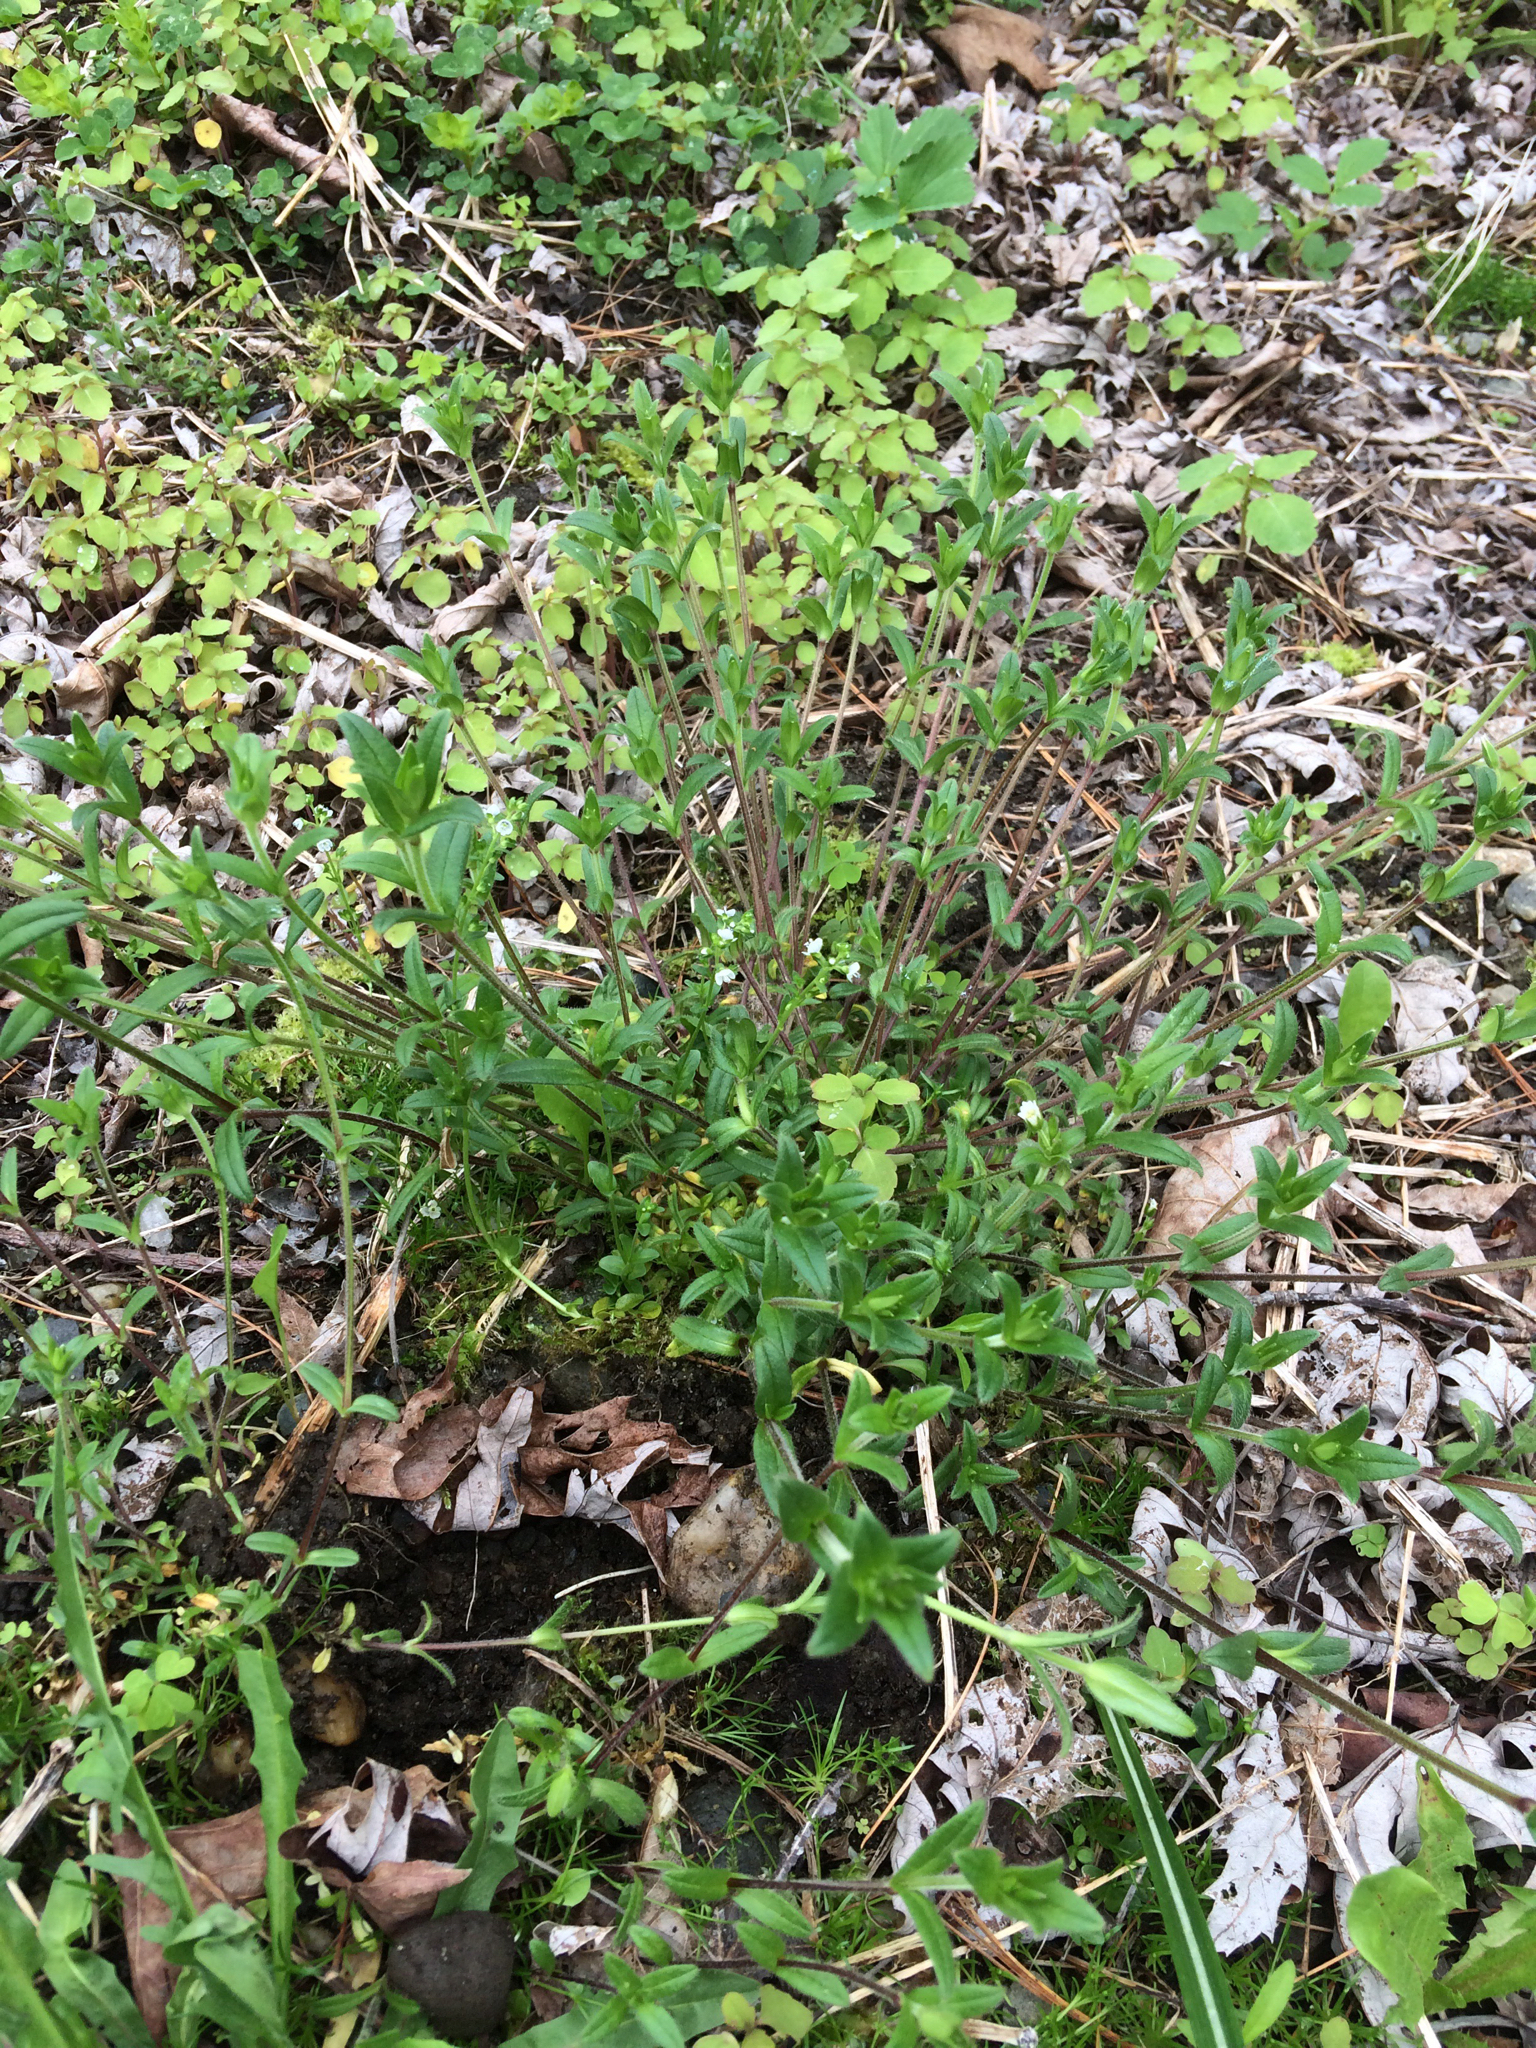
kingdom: Plantae
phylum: Tracheophyta
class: Magnoliopsida
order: Caryophyllales
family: Caryophyllaceae
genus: Cerastium
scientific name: Cerastium fontanum
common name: Common mouse-ear
